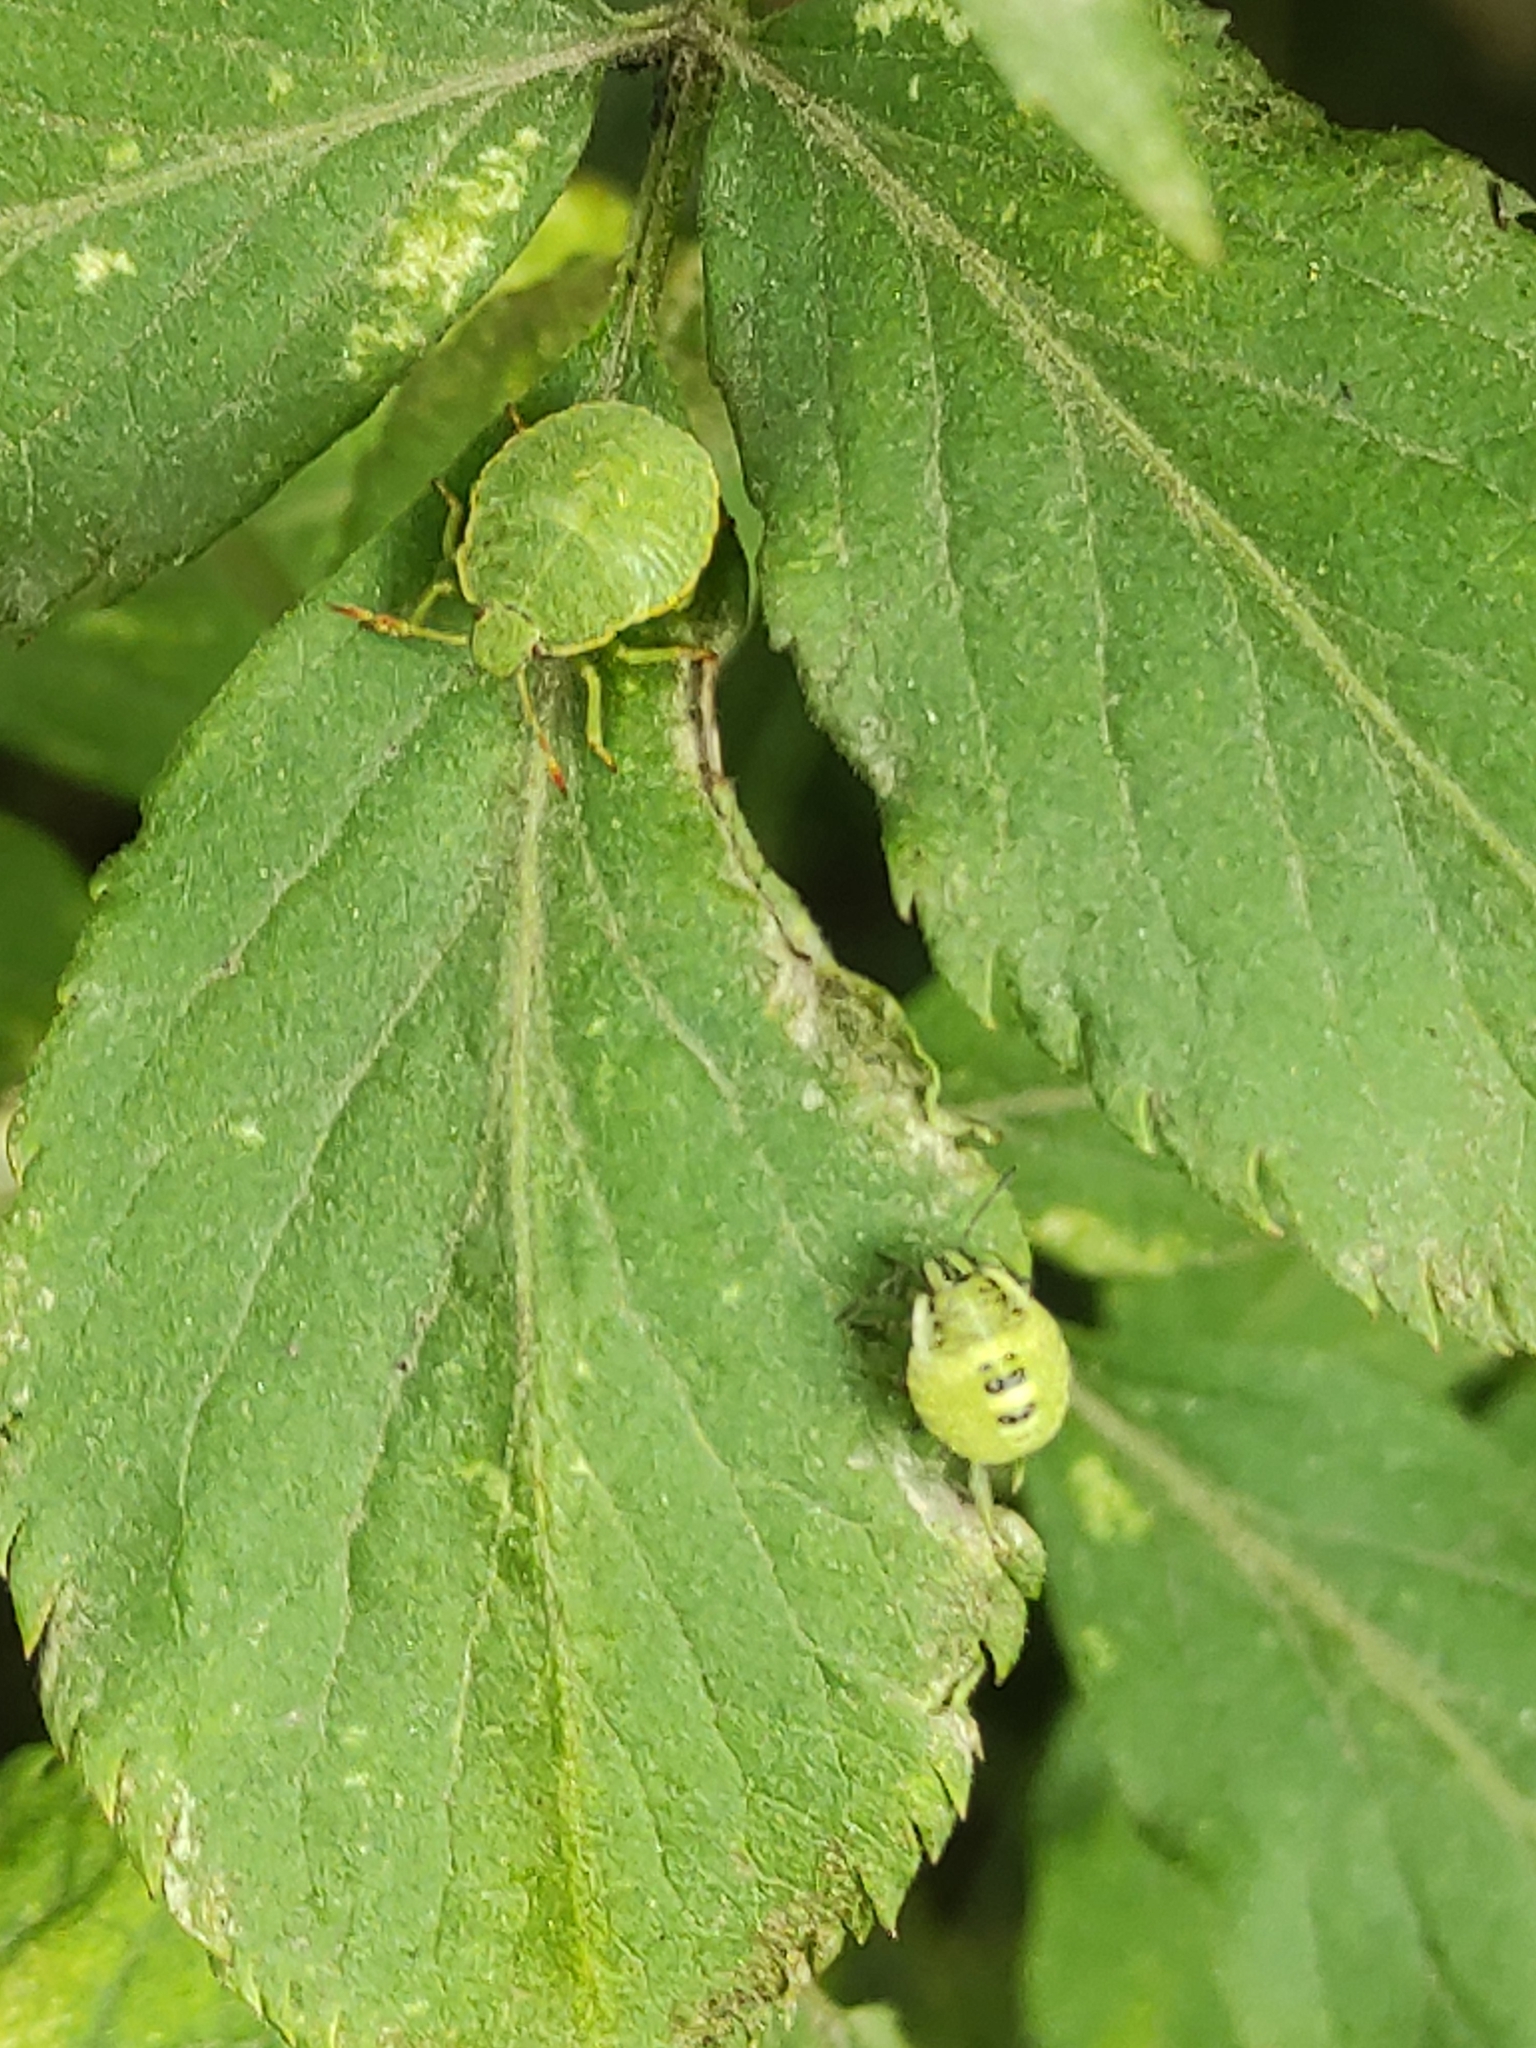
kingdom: Animalia
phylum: Arthropoda
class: Insecta
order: Hemiptera
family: Pentatomidae
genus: Palomena
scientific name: Palomena prasina
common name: Green shieldbug
